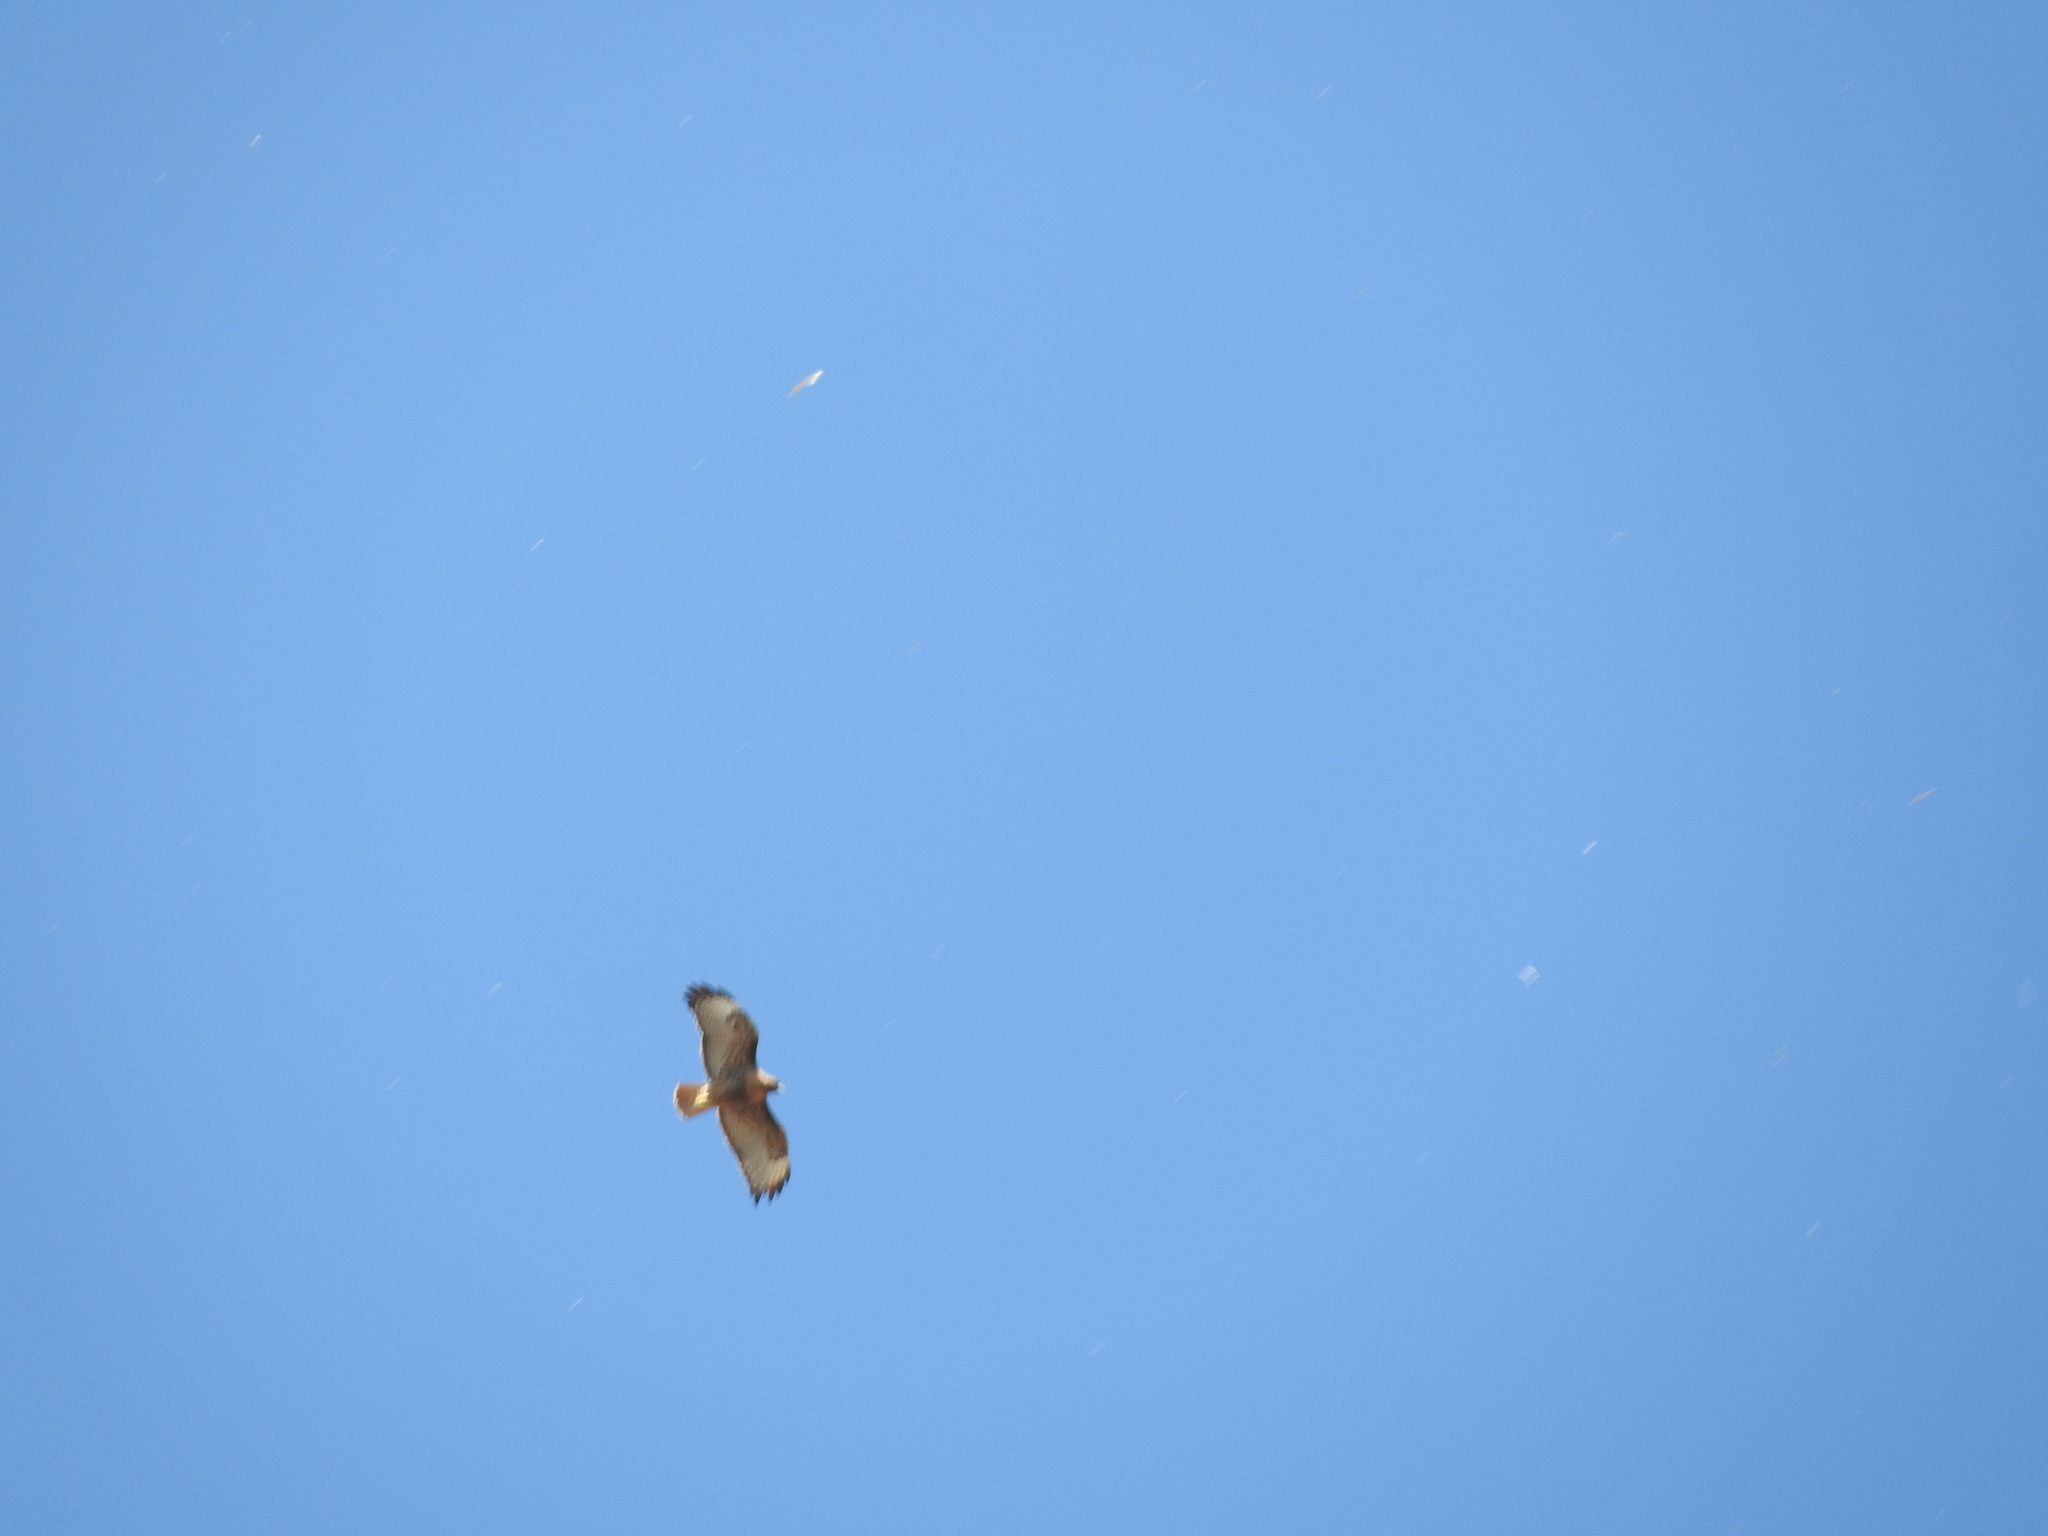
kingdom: Animalia
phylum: Chordata
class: Aves
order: Accipitriformes
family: Accipitridae
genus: Buteo
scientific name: Buteo jamaicensis
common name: Red-tailed hawk
